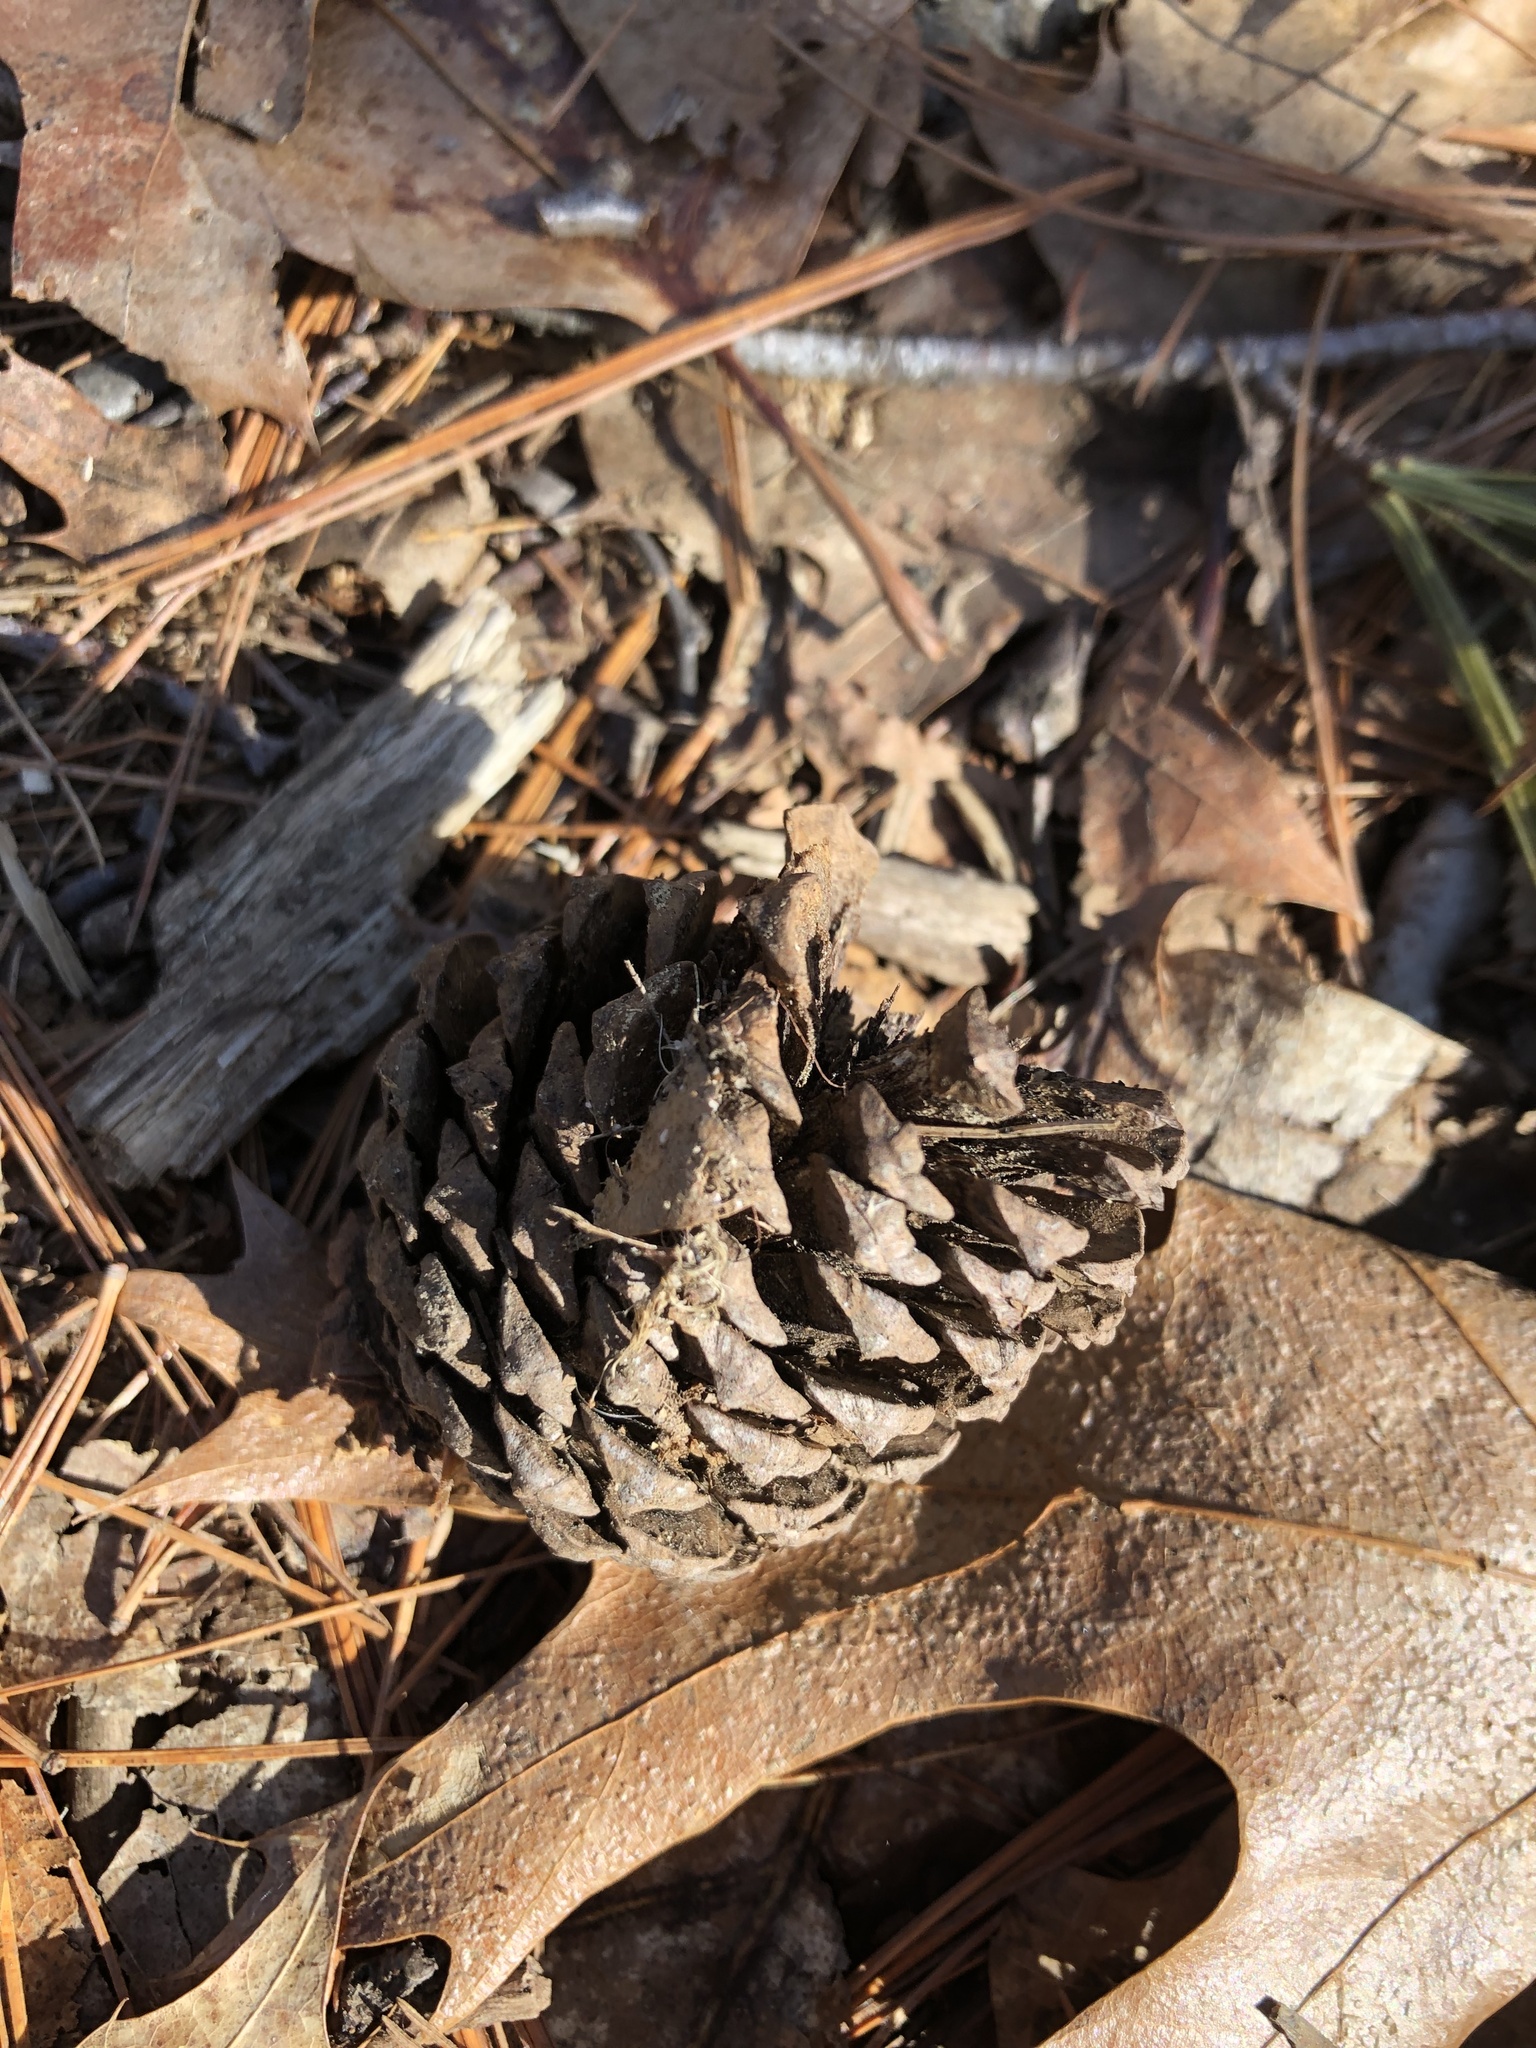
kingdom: Plantae
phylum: Tracheophyta
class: Pinopsida
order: Pinales
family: Pinaceae
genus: Pinus
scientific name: Pinus rigida
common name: Pitch pine
